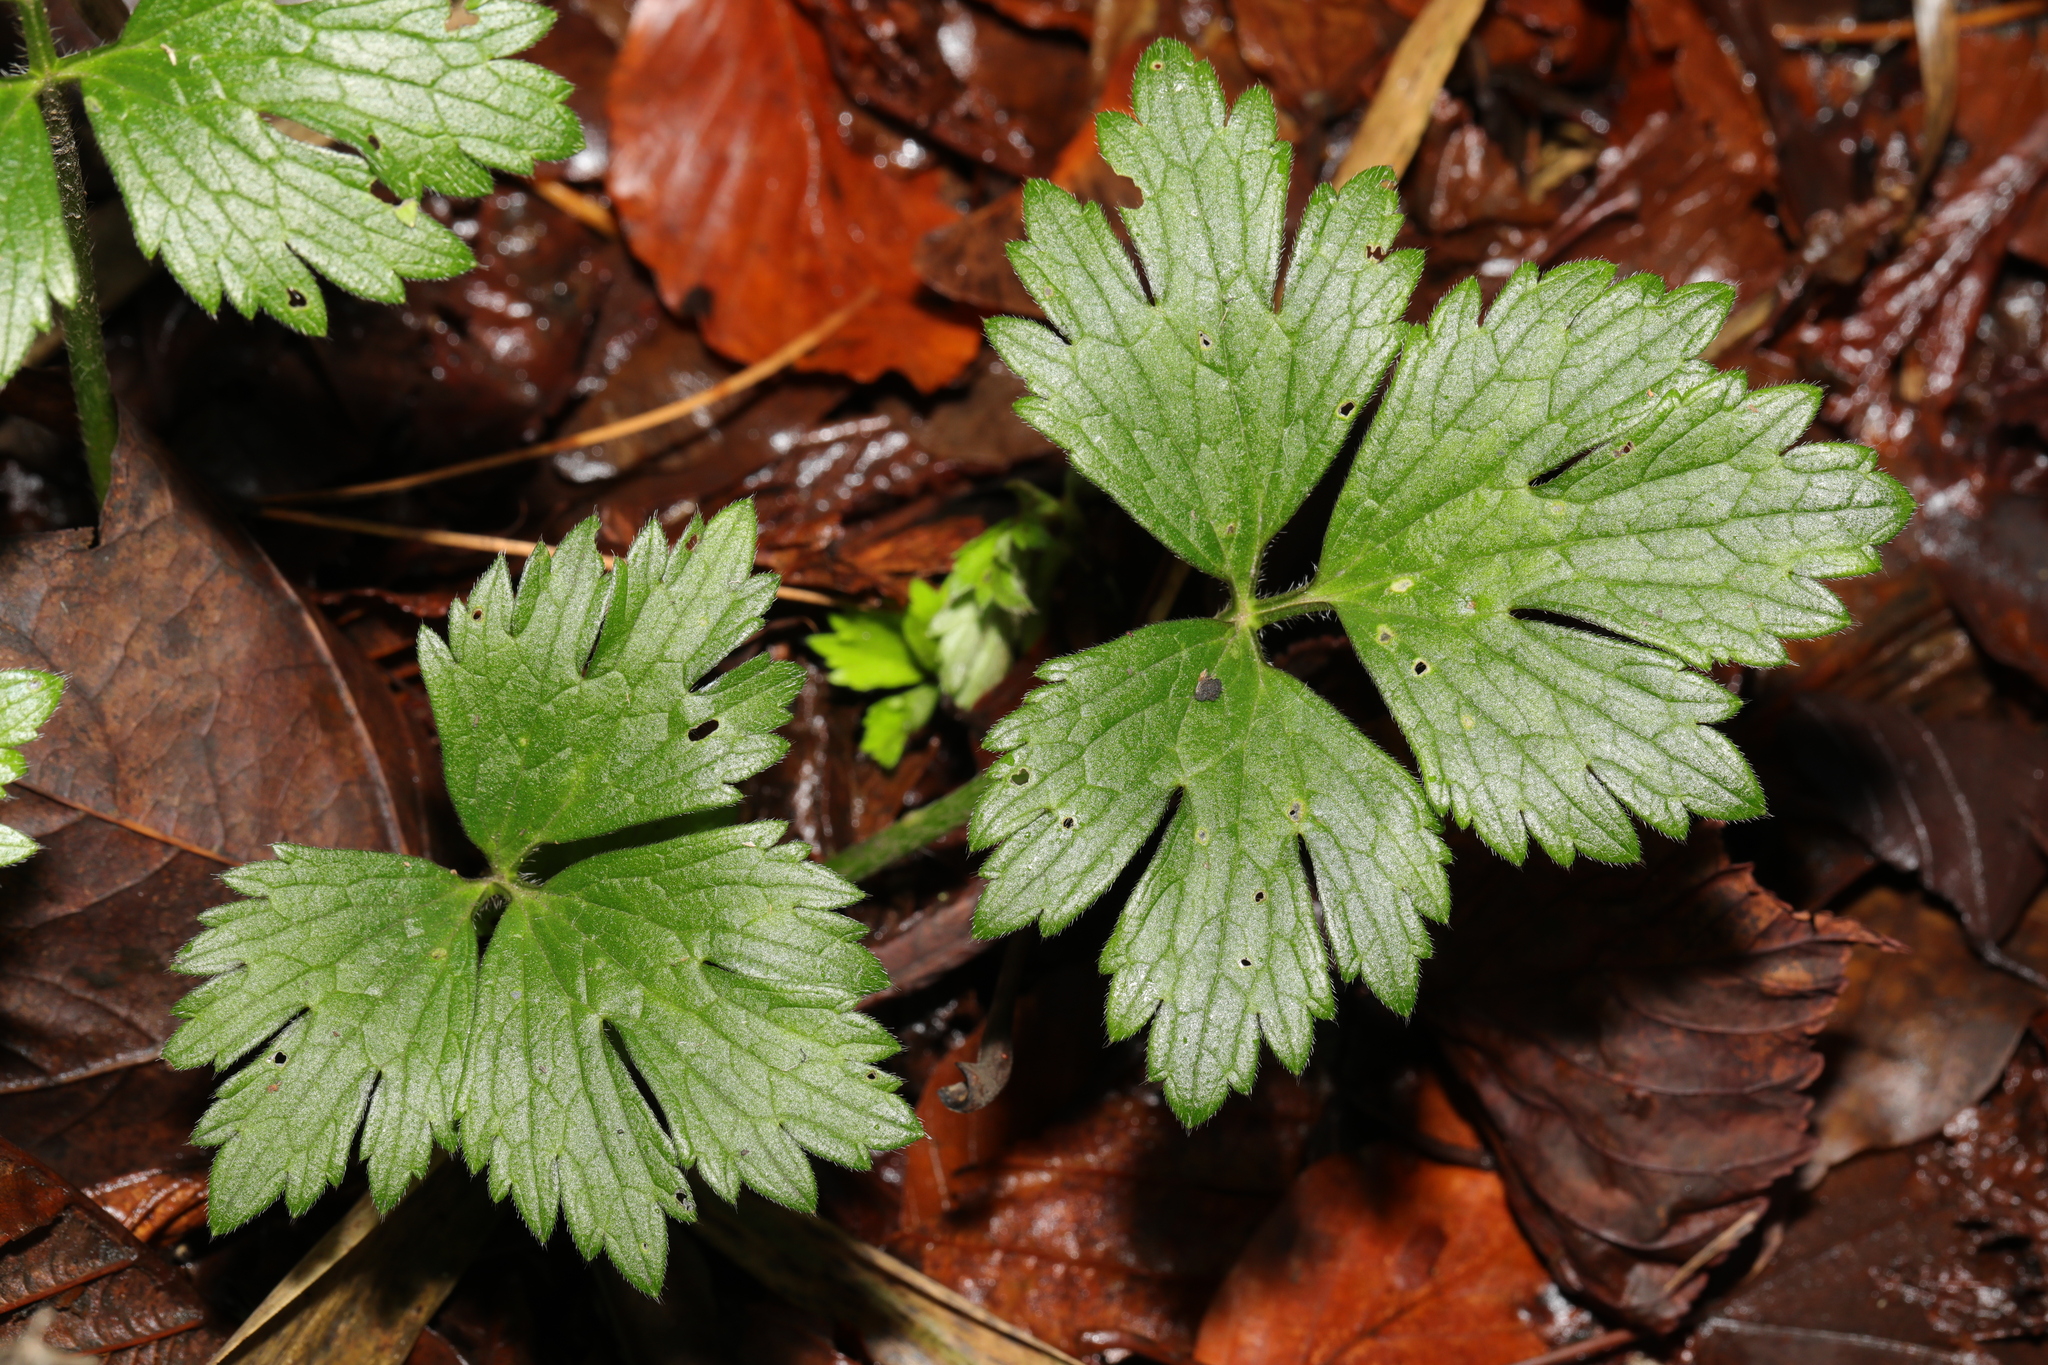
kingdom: Plantae
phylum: Tracheophyta
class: Magnoliopsida
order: Ranunculales
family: Ranunculaceae
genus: Ranunculus
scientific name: Ranunculus repens
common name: Creeping buttercup
